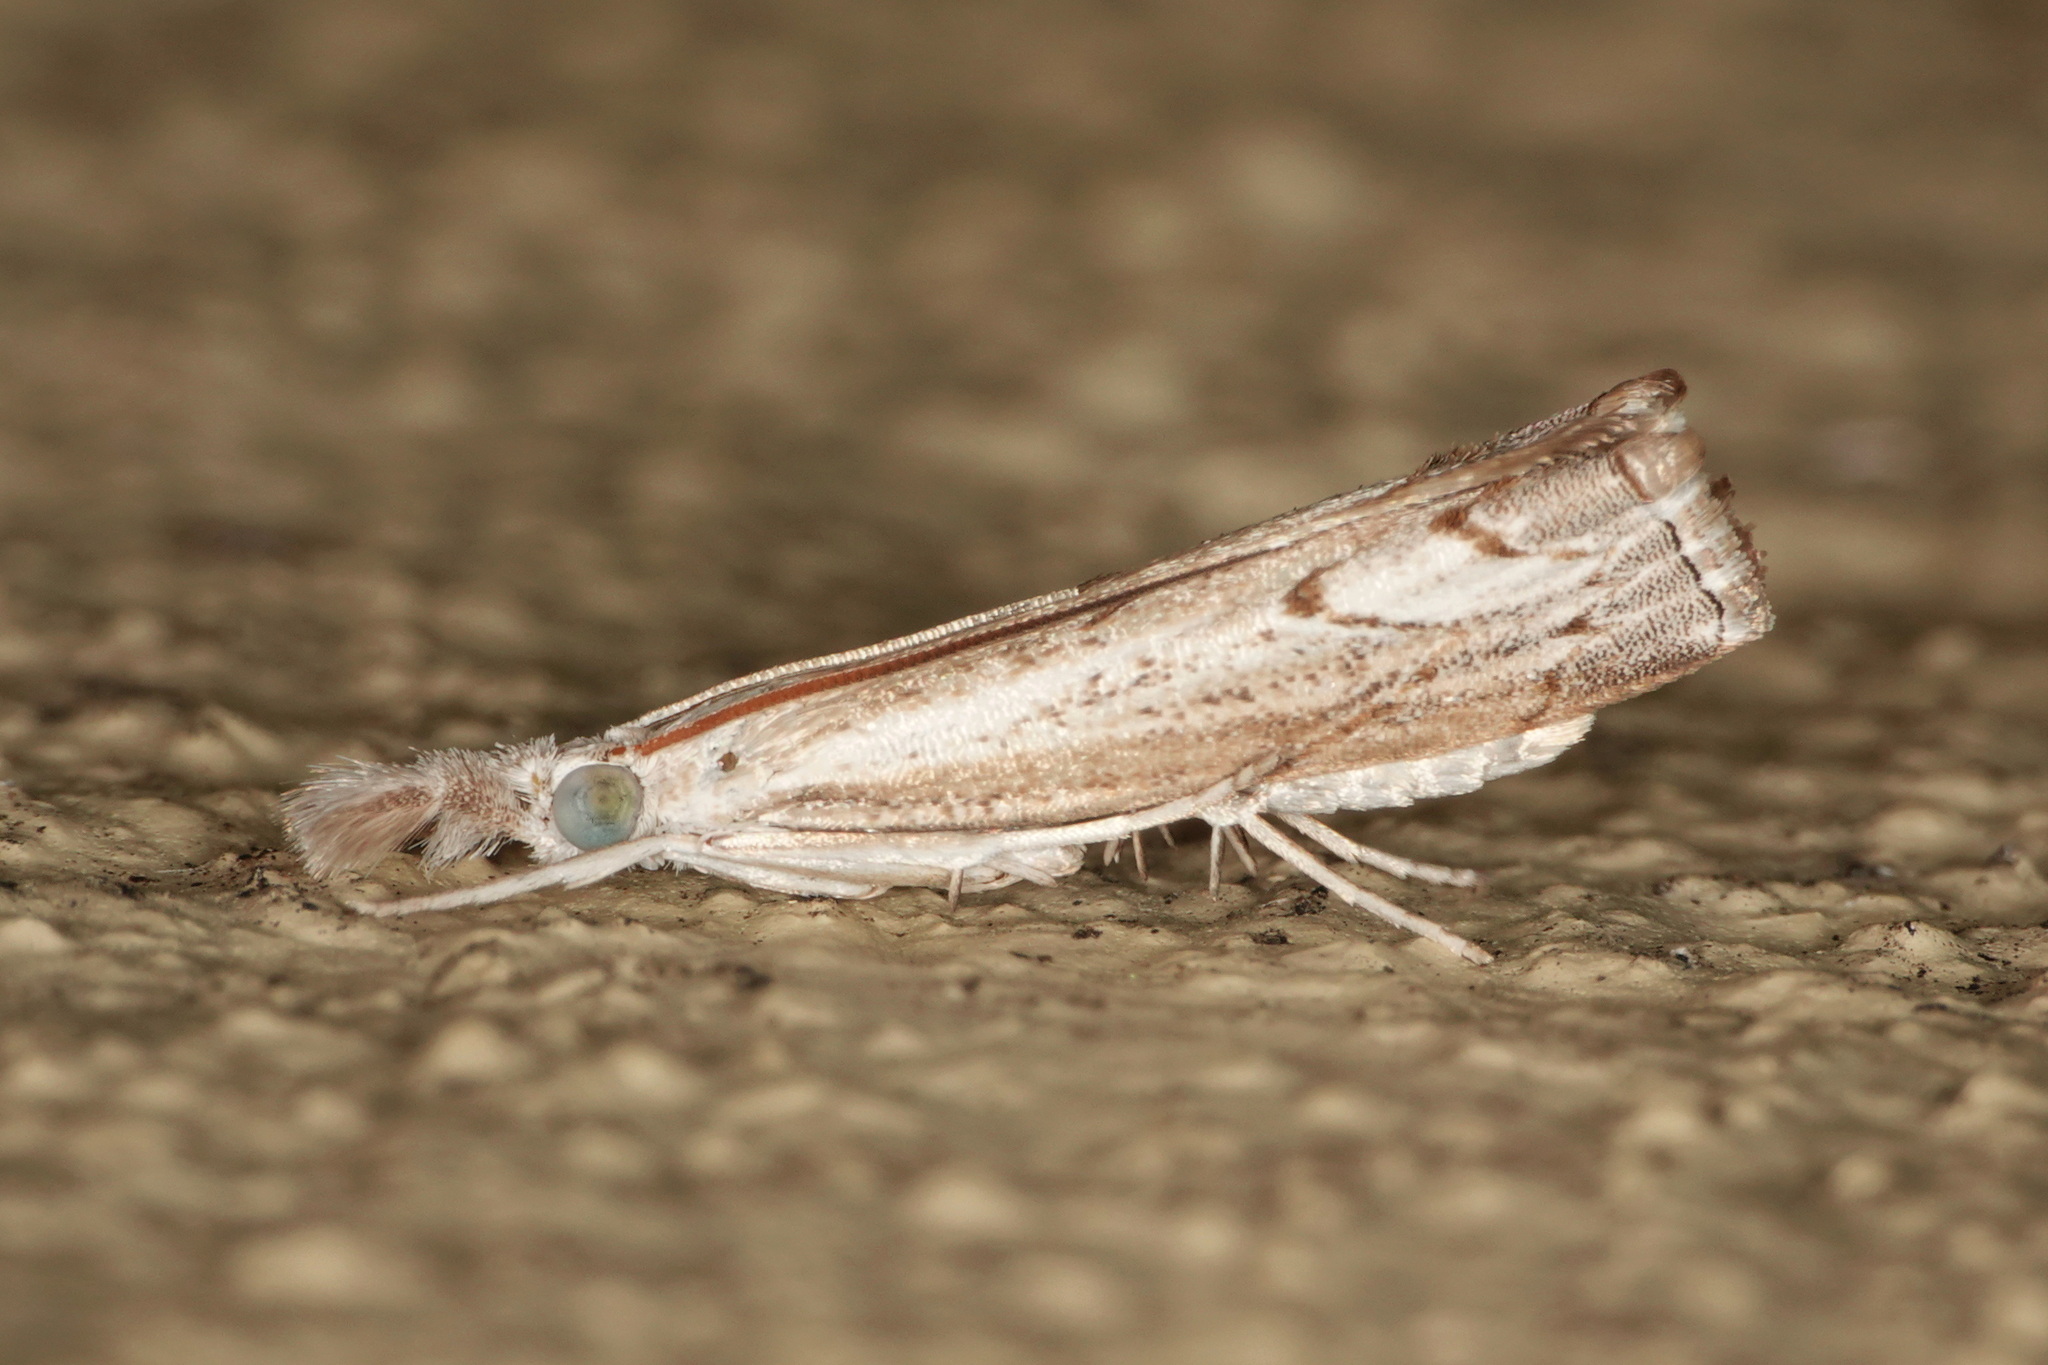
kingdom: Animalia
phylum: Arthropoda
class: Insecta
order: Lepidoptera
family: Crambidae
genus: Culladia
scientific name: Culladia cuneiferellus
